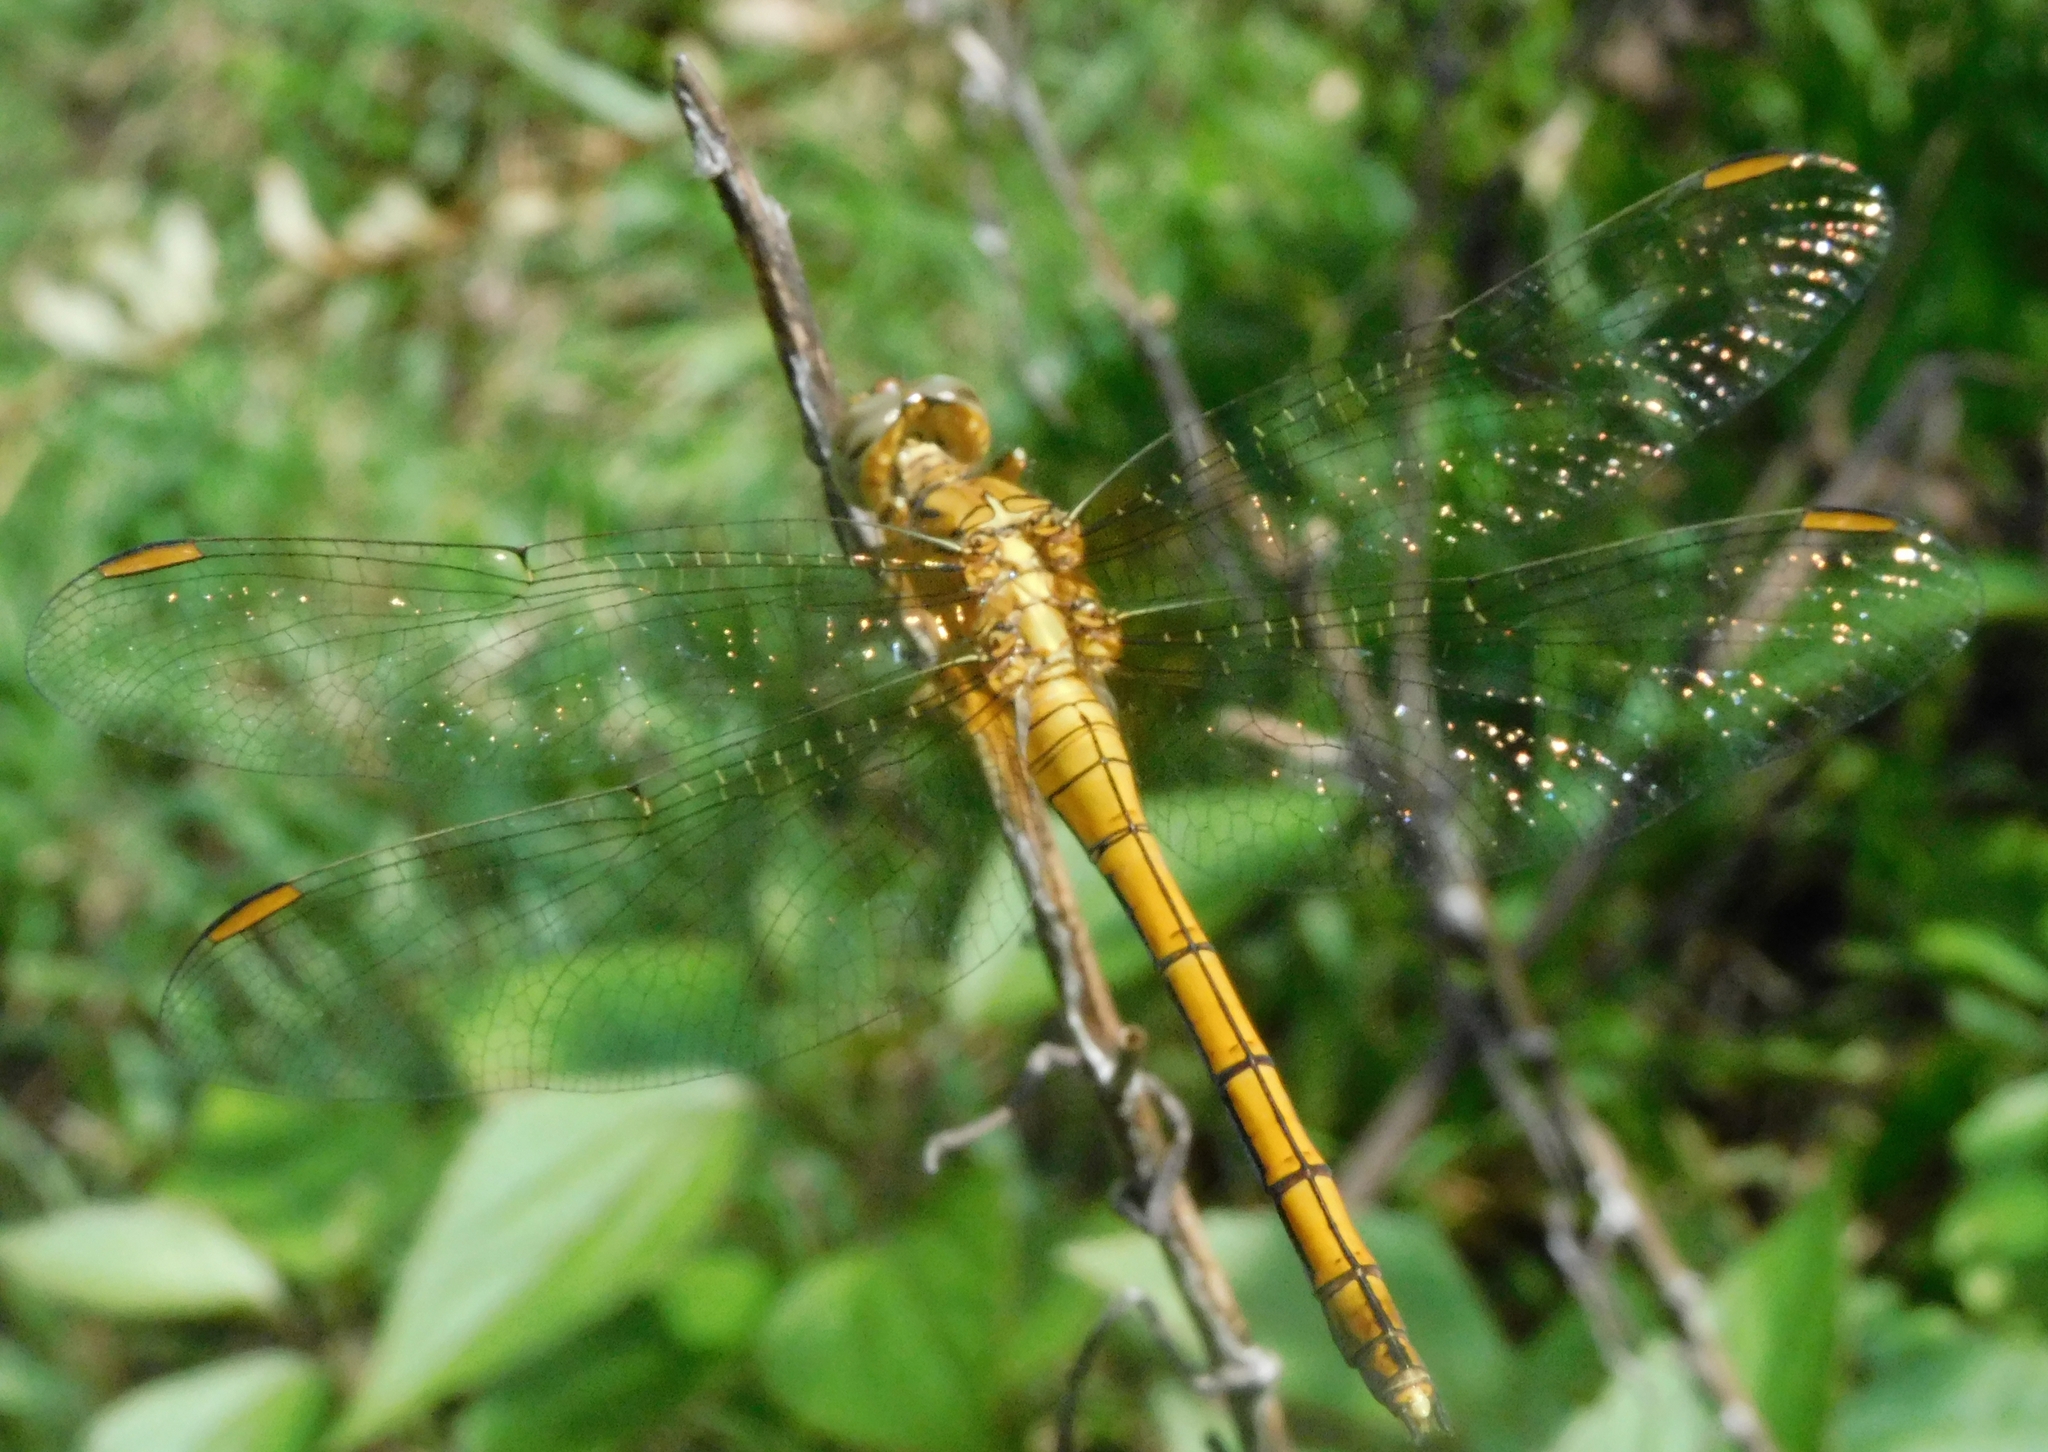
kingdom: Animalia
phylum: Arthropoda
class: Insecta
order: Odonata
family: Libellulidae
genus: Orthetrum
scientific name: Orthetrum luzonicum
